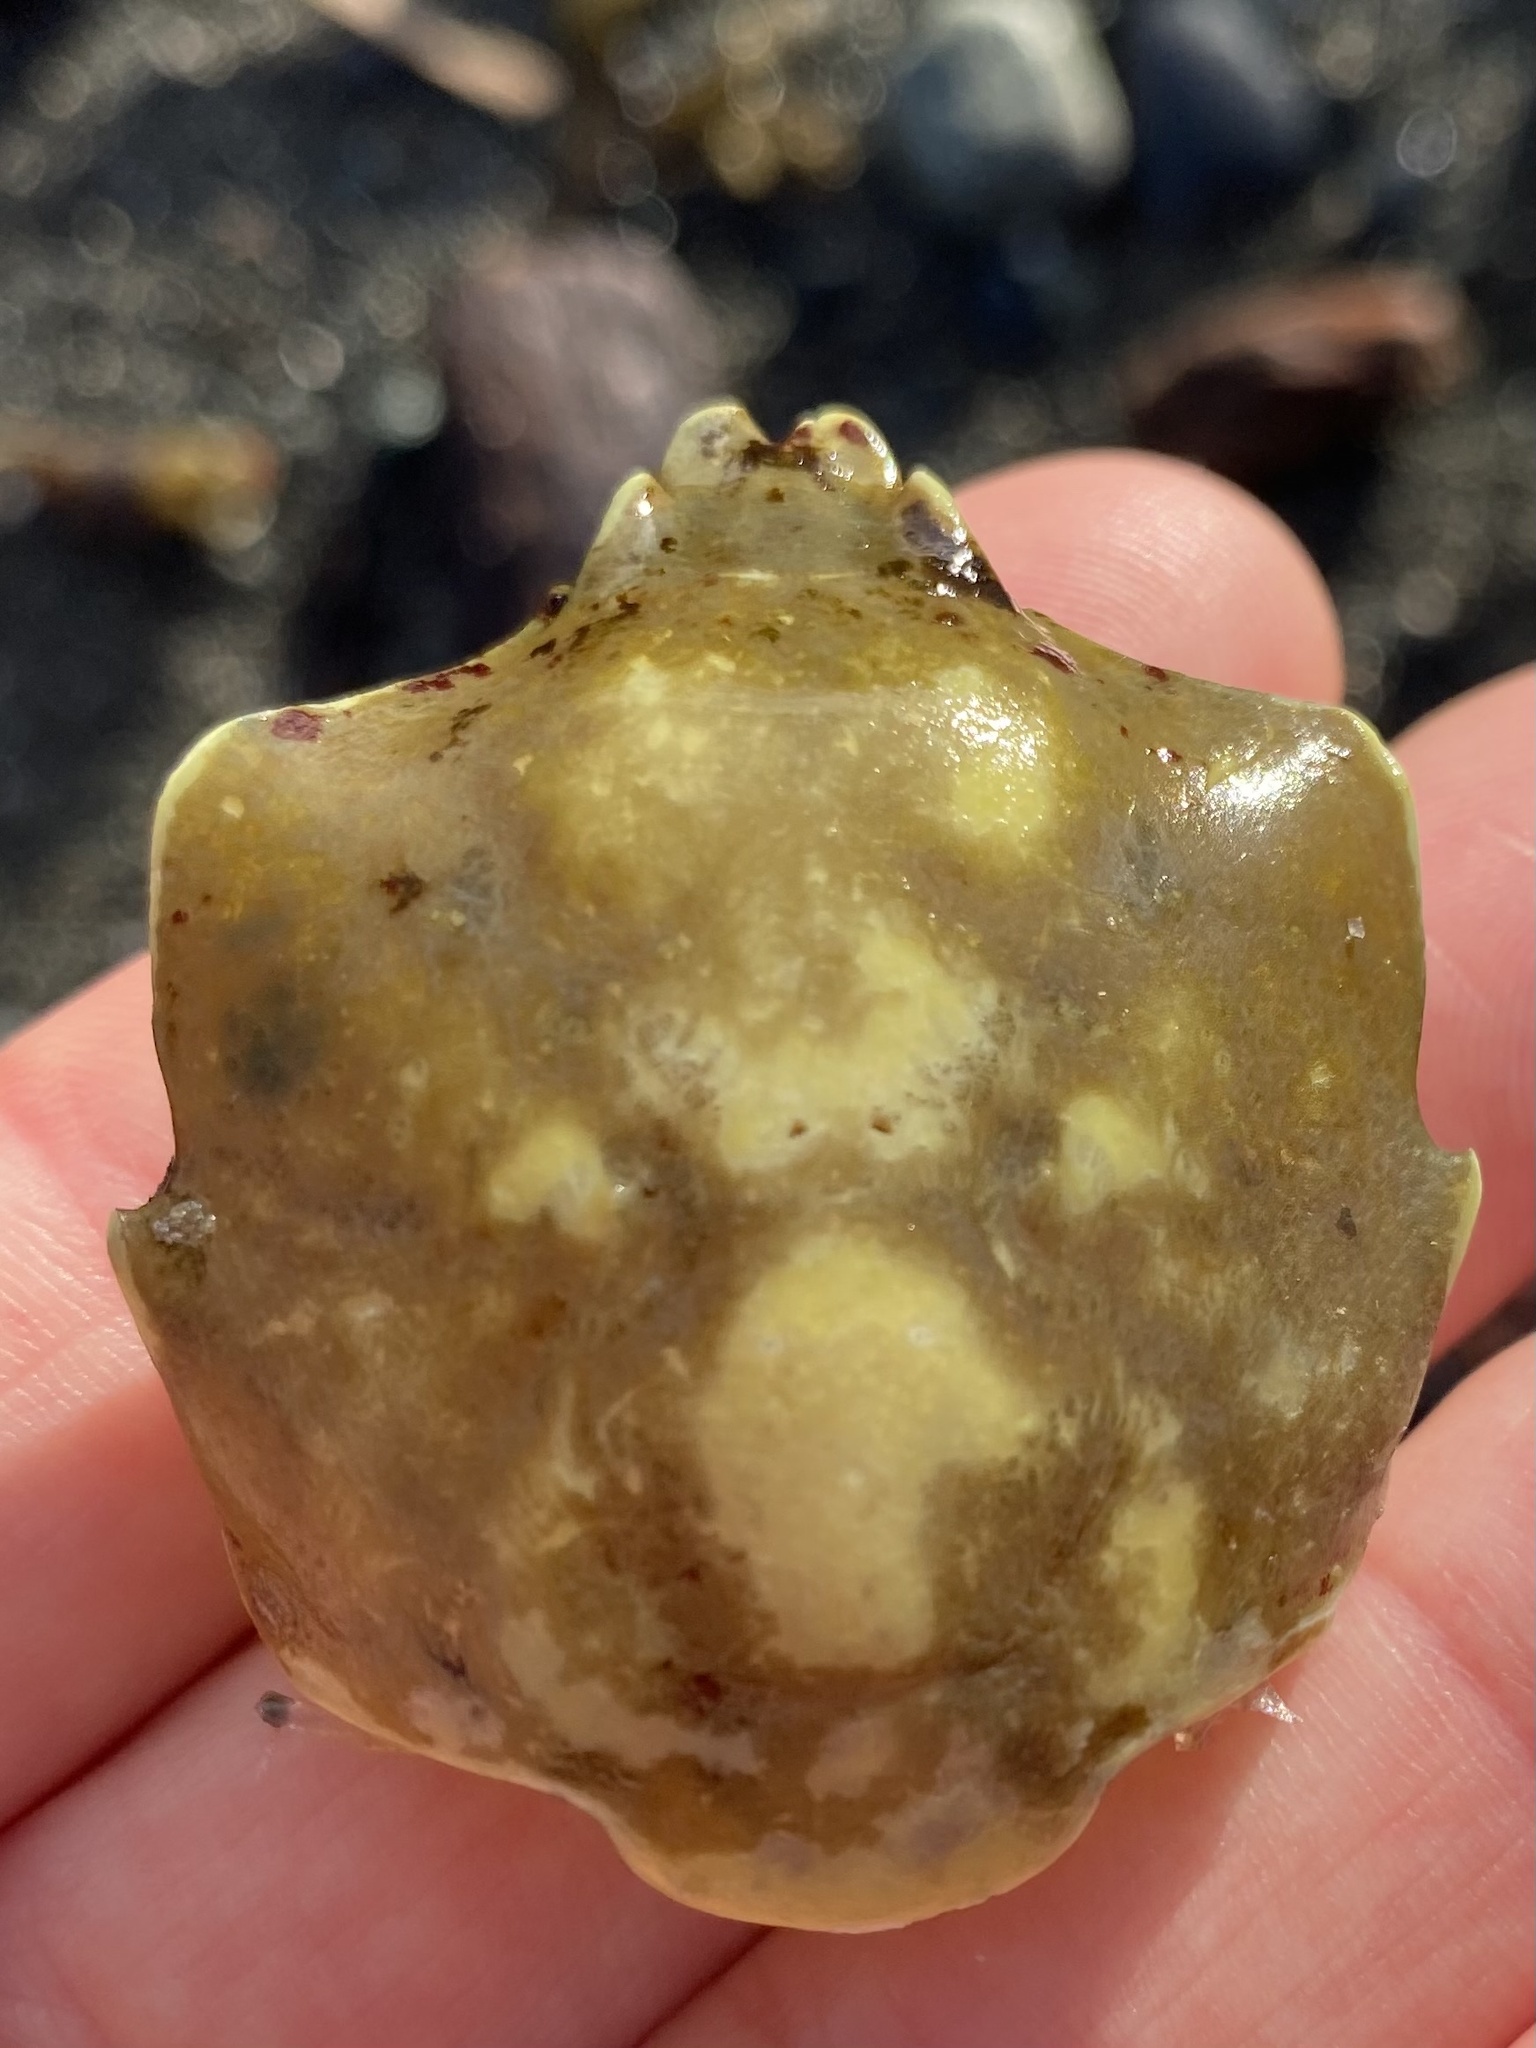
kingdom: Animalia
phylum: Arthropoda
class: Malacostraca
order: Decapoda
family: Epialtidae
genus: Pugettia
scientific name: Pugettia producta
